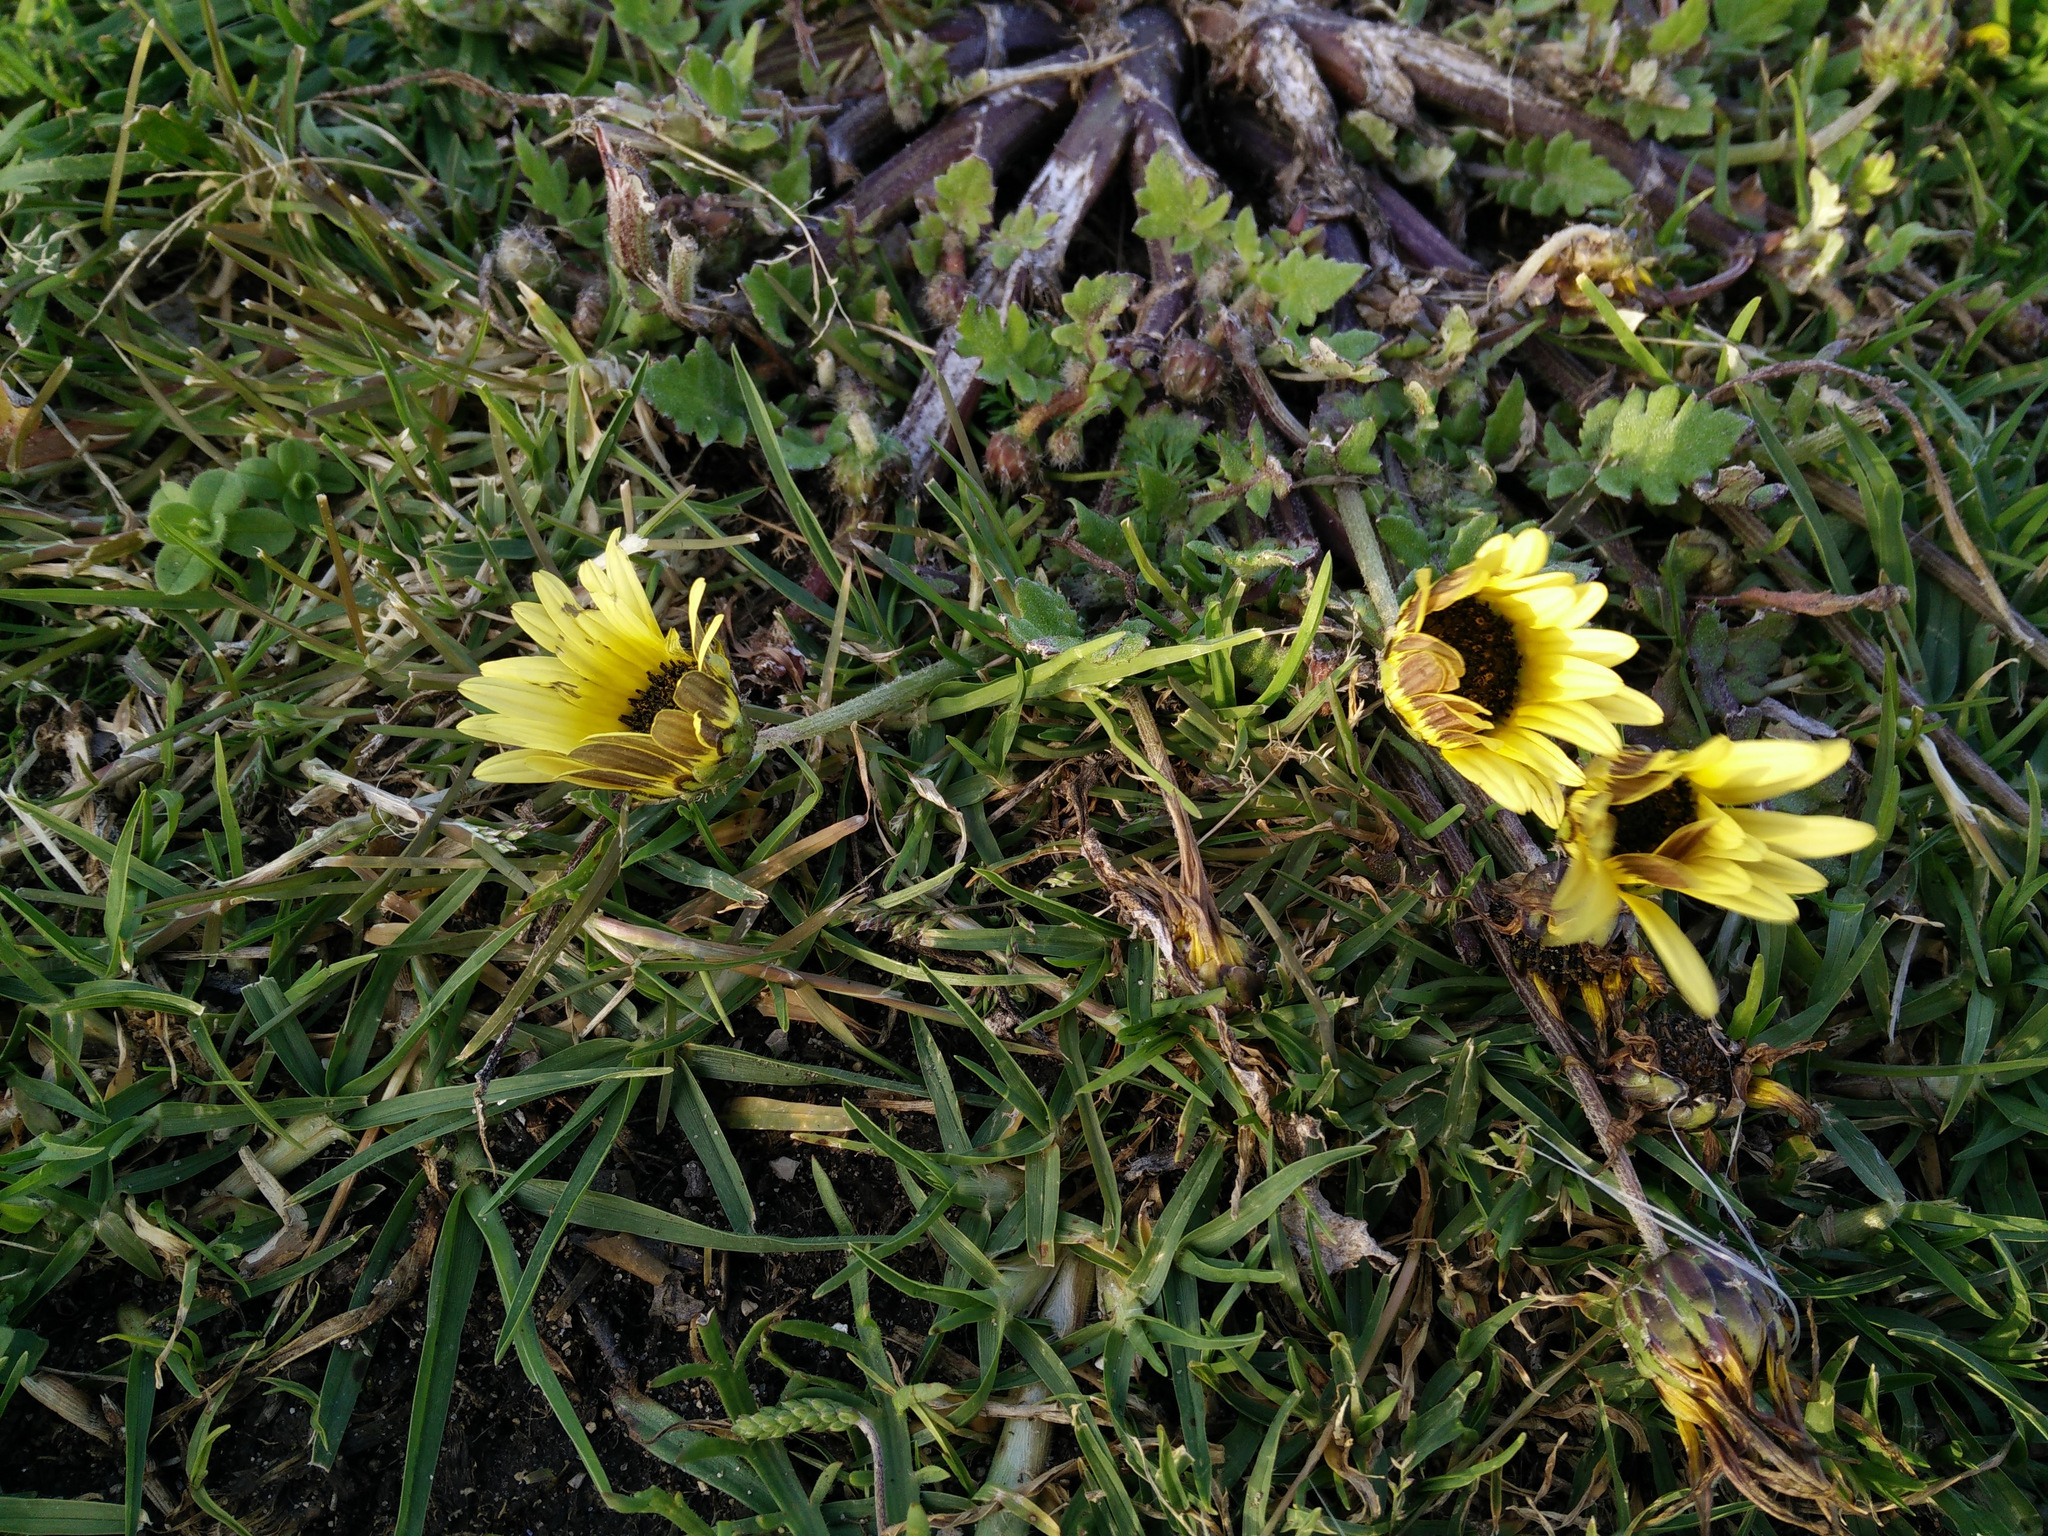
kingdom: Plantae
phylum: Tracheophyta
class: Magnoliopsida
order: Asterales
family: Asteraceae
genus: Arctotheca
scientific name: Arctotheca calendula
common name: Capeweed
